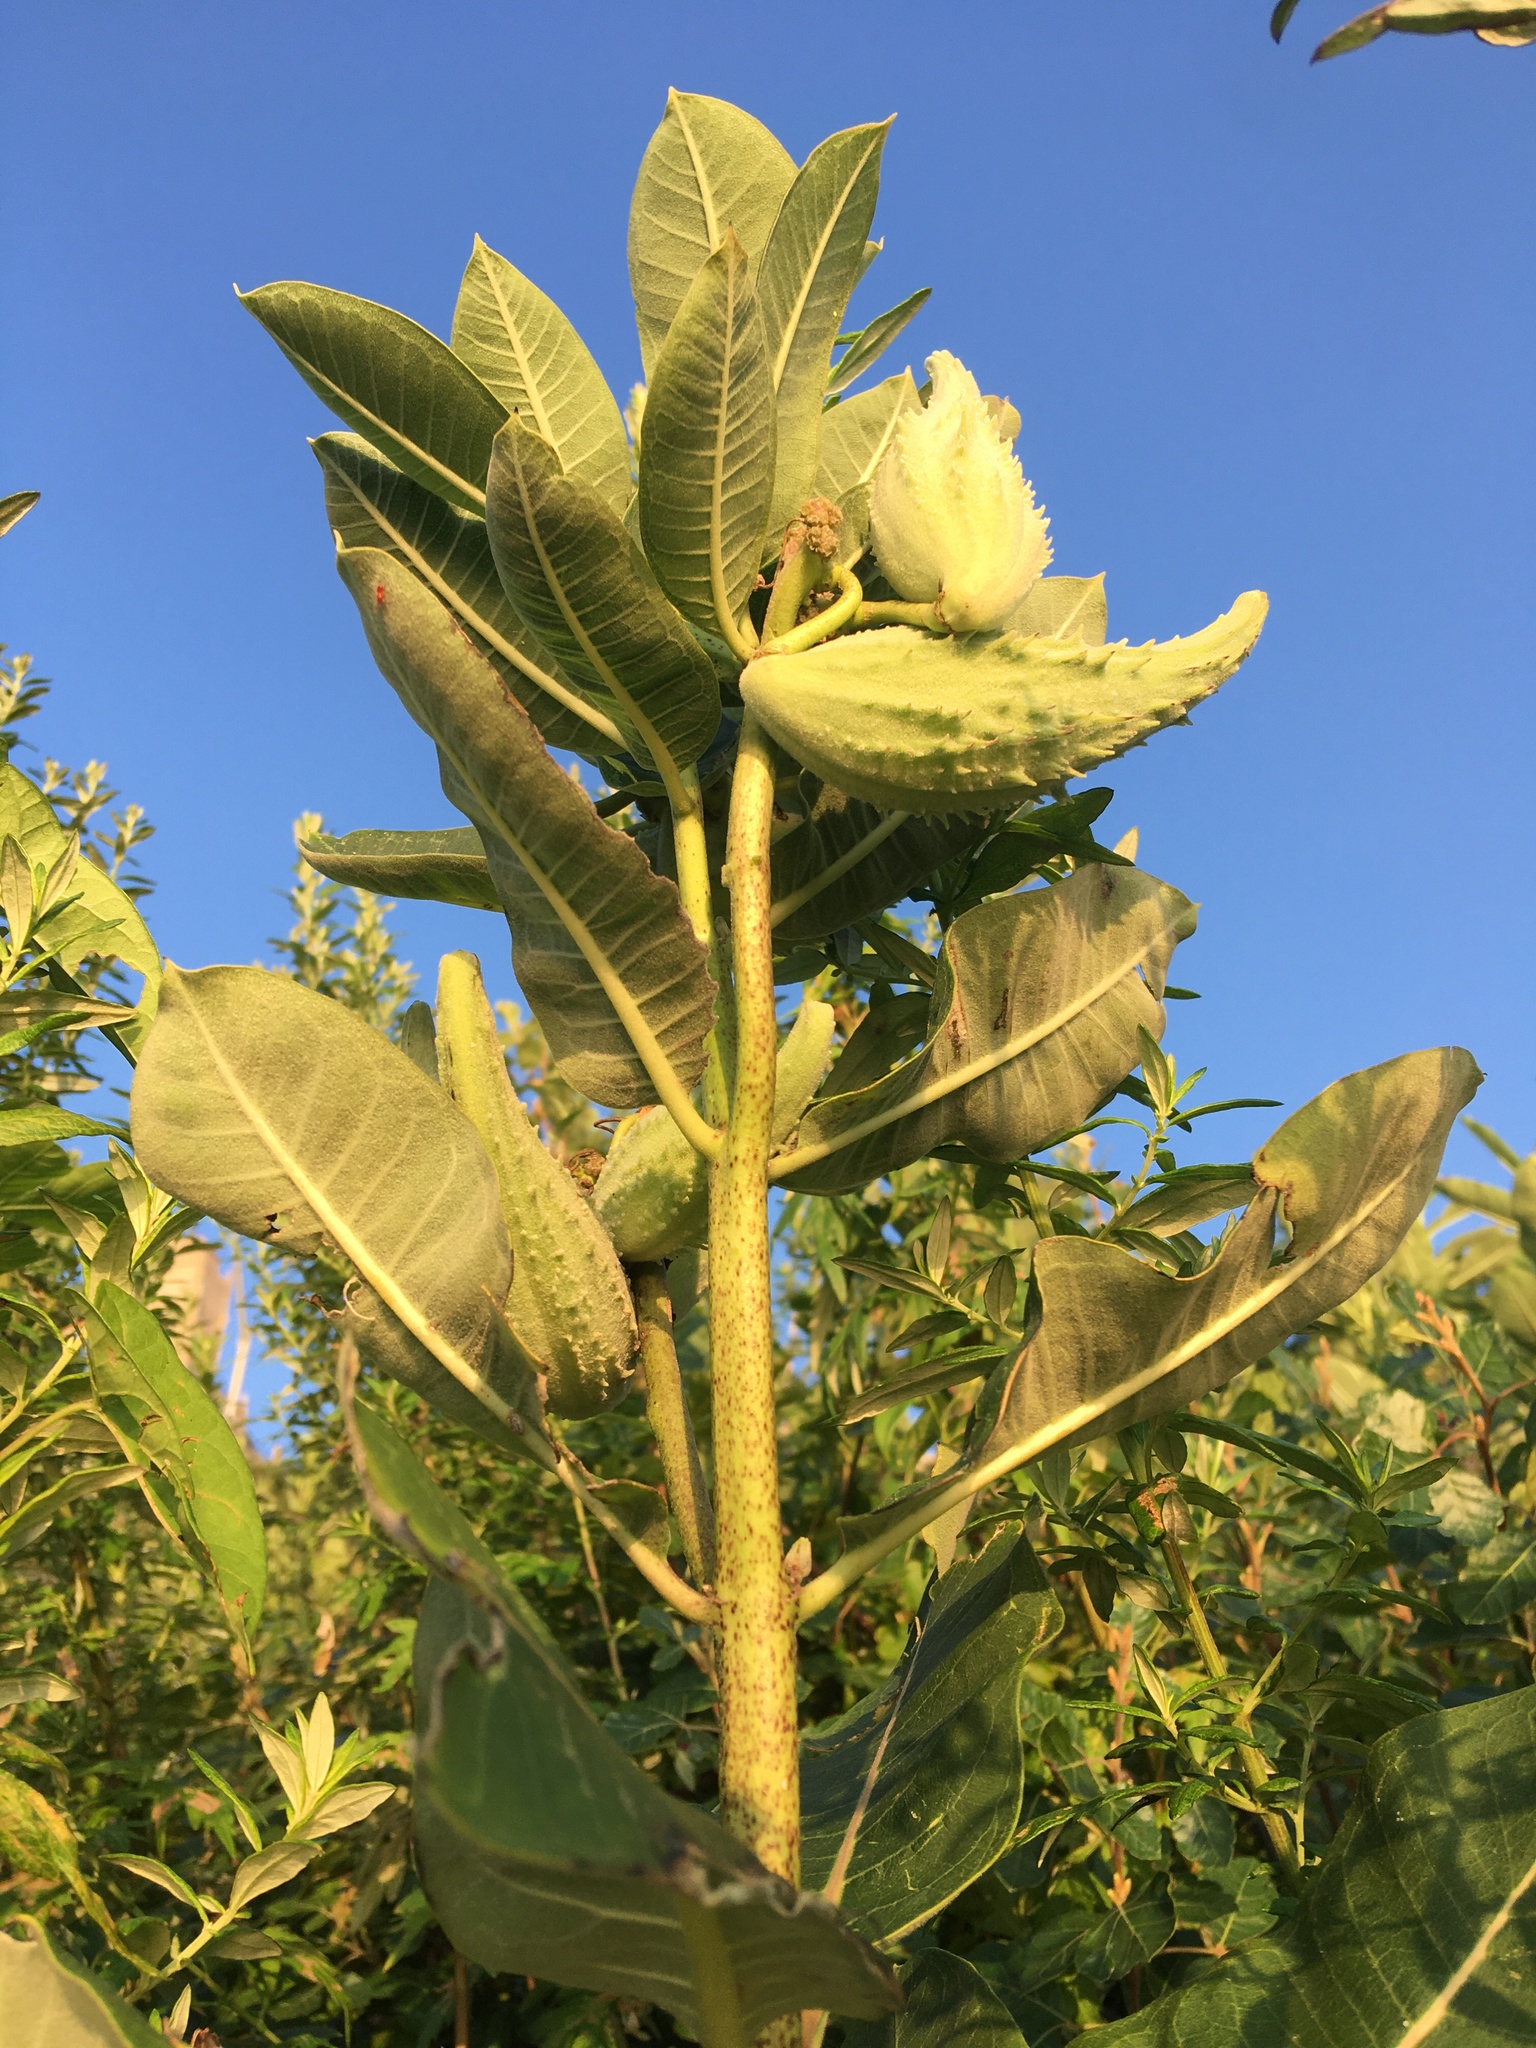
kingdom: Plantae
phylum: Tracheophyta
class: Magnoliopsida
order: Gentianales
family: Apocynaceae
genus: Asclepias
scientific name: Asclepias syriaca
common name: Common milkweed
